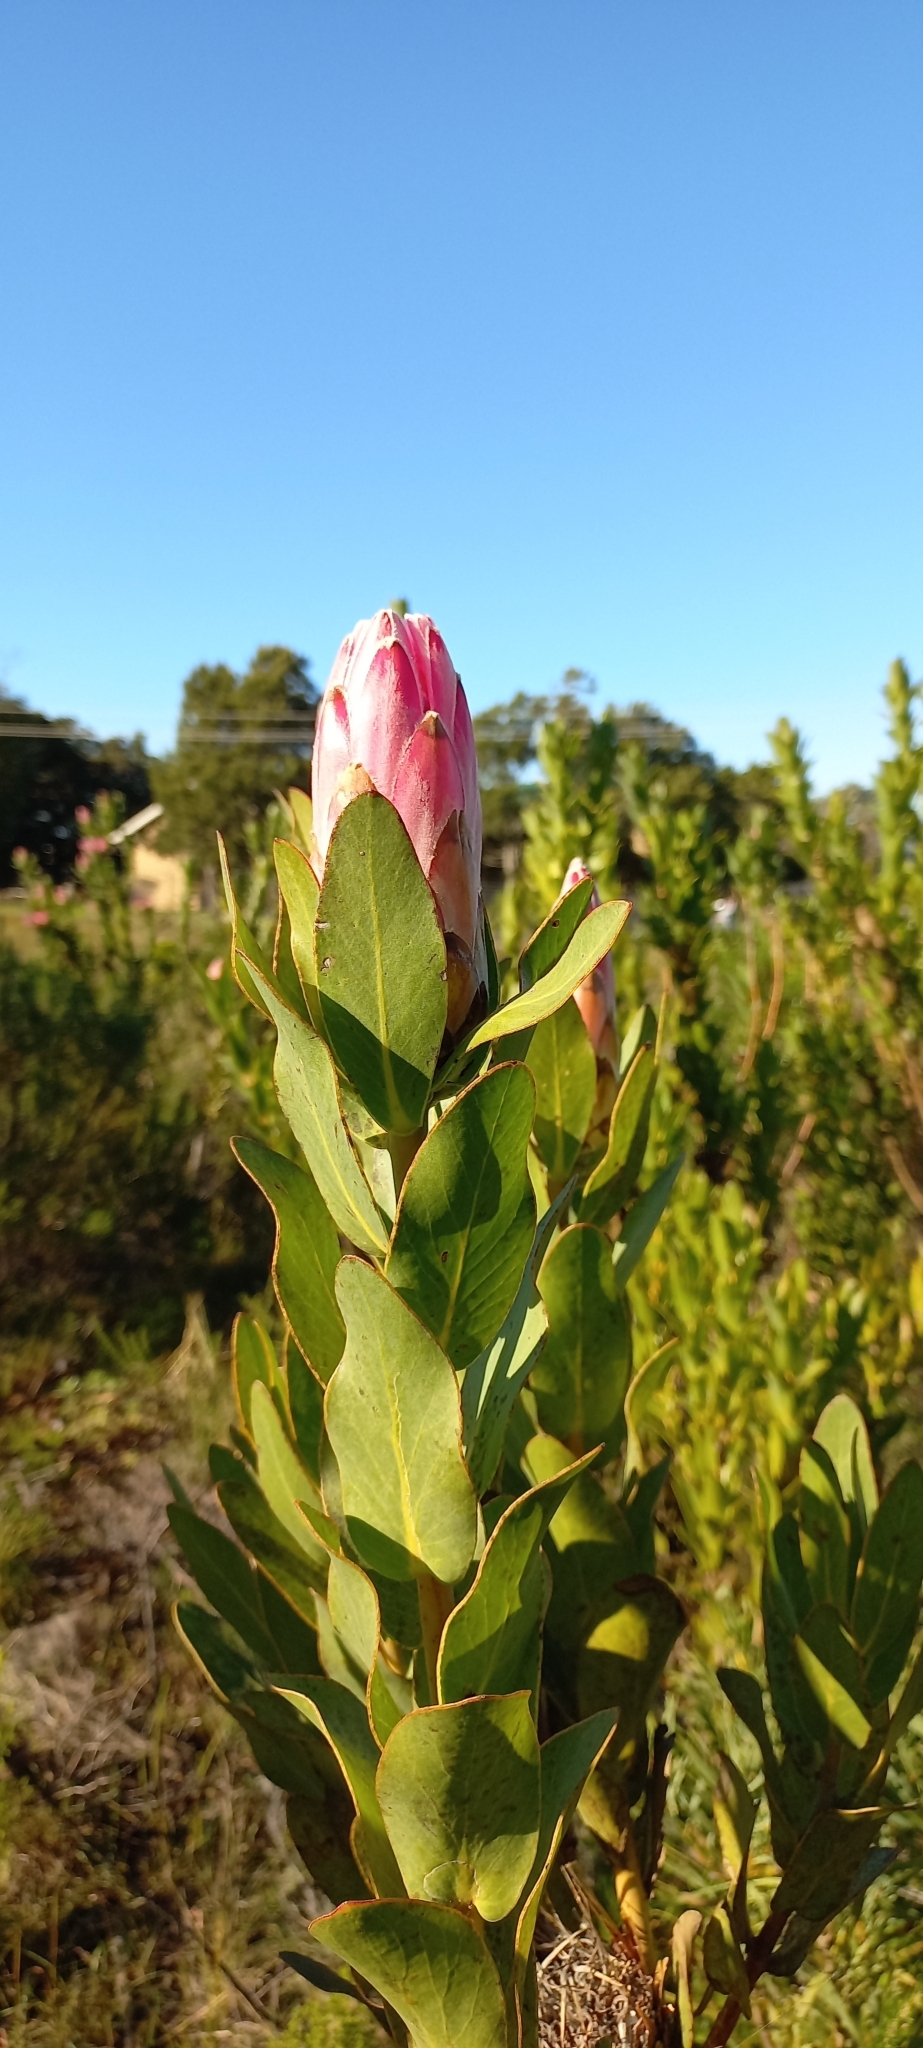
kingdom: Plantae
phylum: Tracheophyta
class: Magnoliopsida
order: Proteales
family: Proteaceae
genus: Protea
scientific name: Protea compacta
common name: Bot river protea
